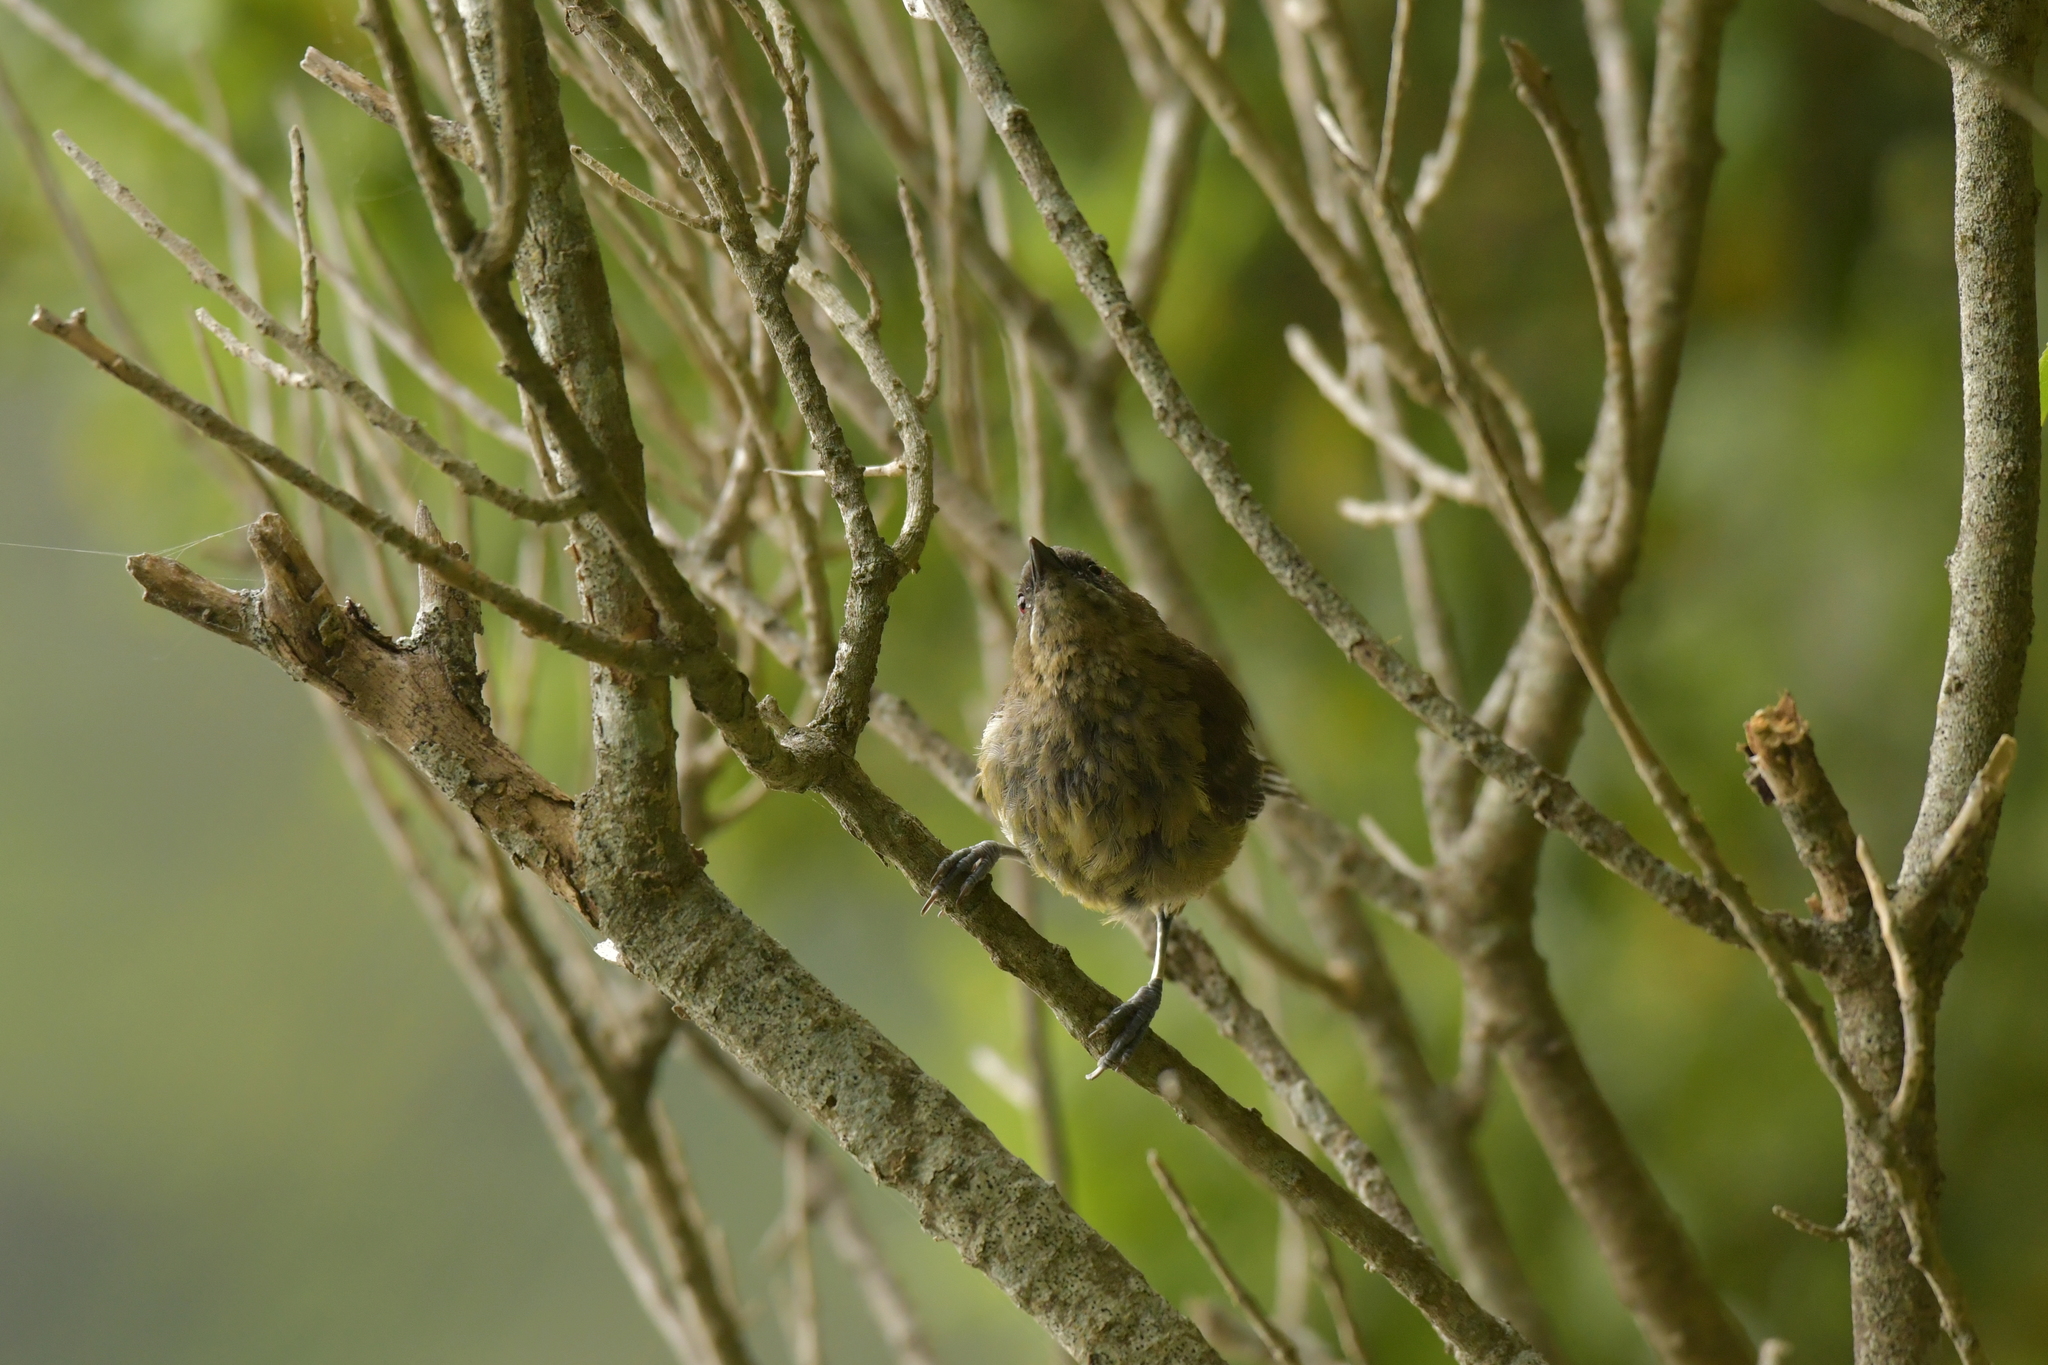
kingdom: Animalia
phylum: Chordata
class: Aves
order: Passeriformes
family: Meliphagidae
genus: Anthornis
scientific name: Anthornis melanura
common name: New zealand bellbird
